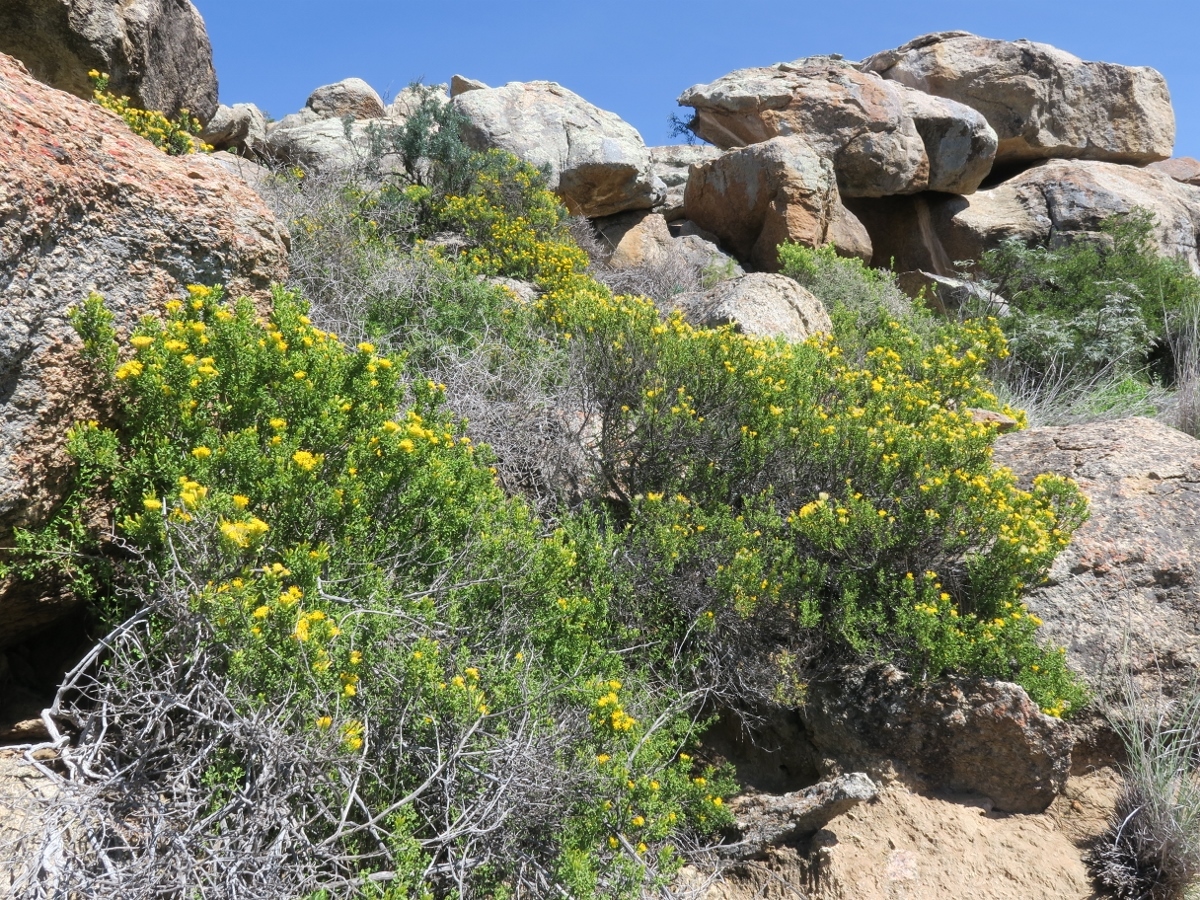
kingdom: Plantae
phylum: Tracheophyta
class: Magnoliopsida
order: Asterales
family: Asteraceae
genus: Pteronia
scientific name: Pteronia undulata
